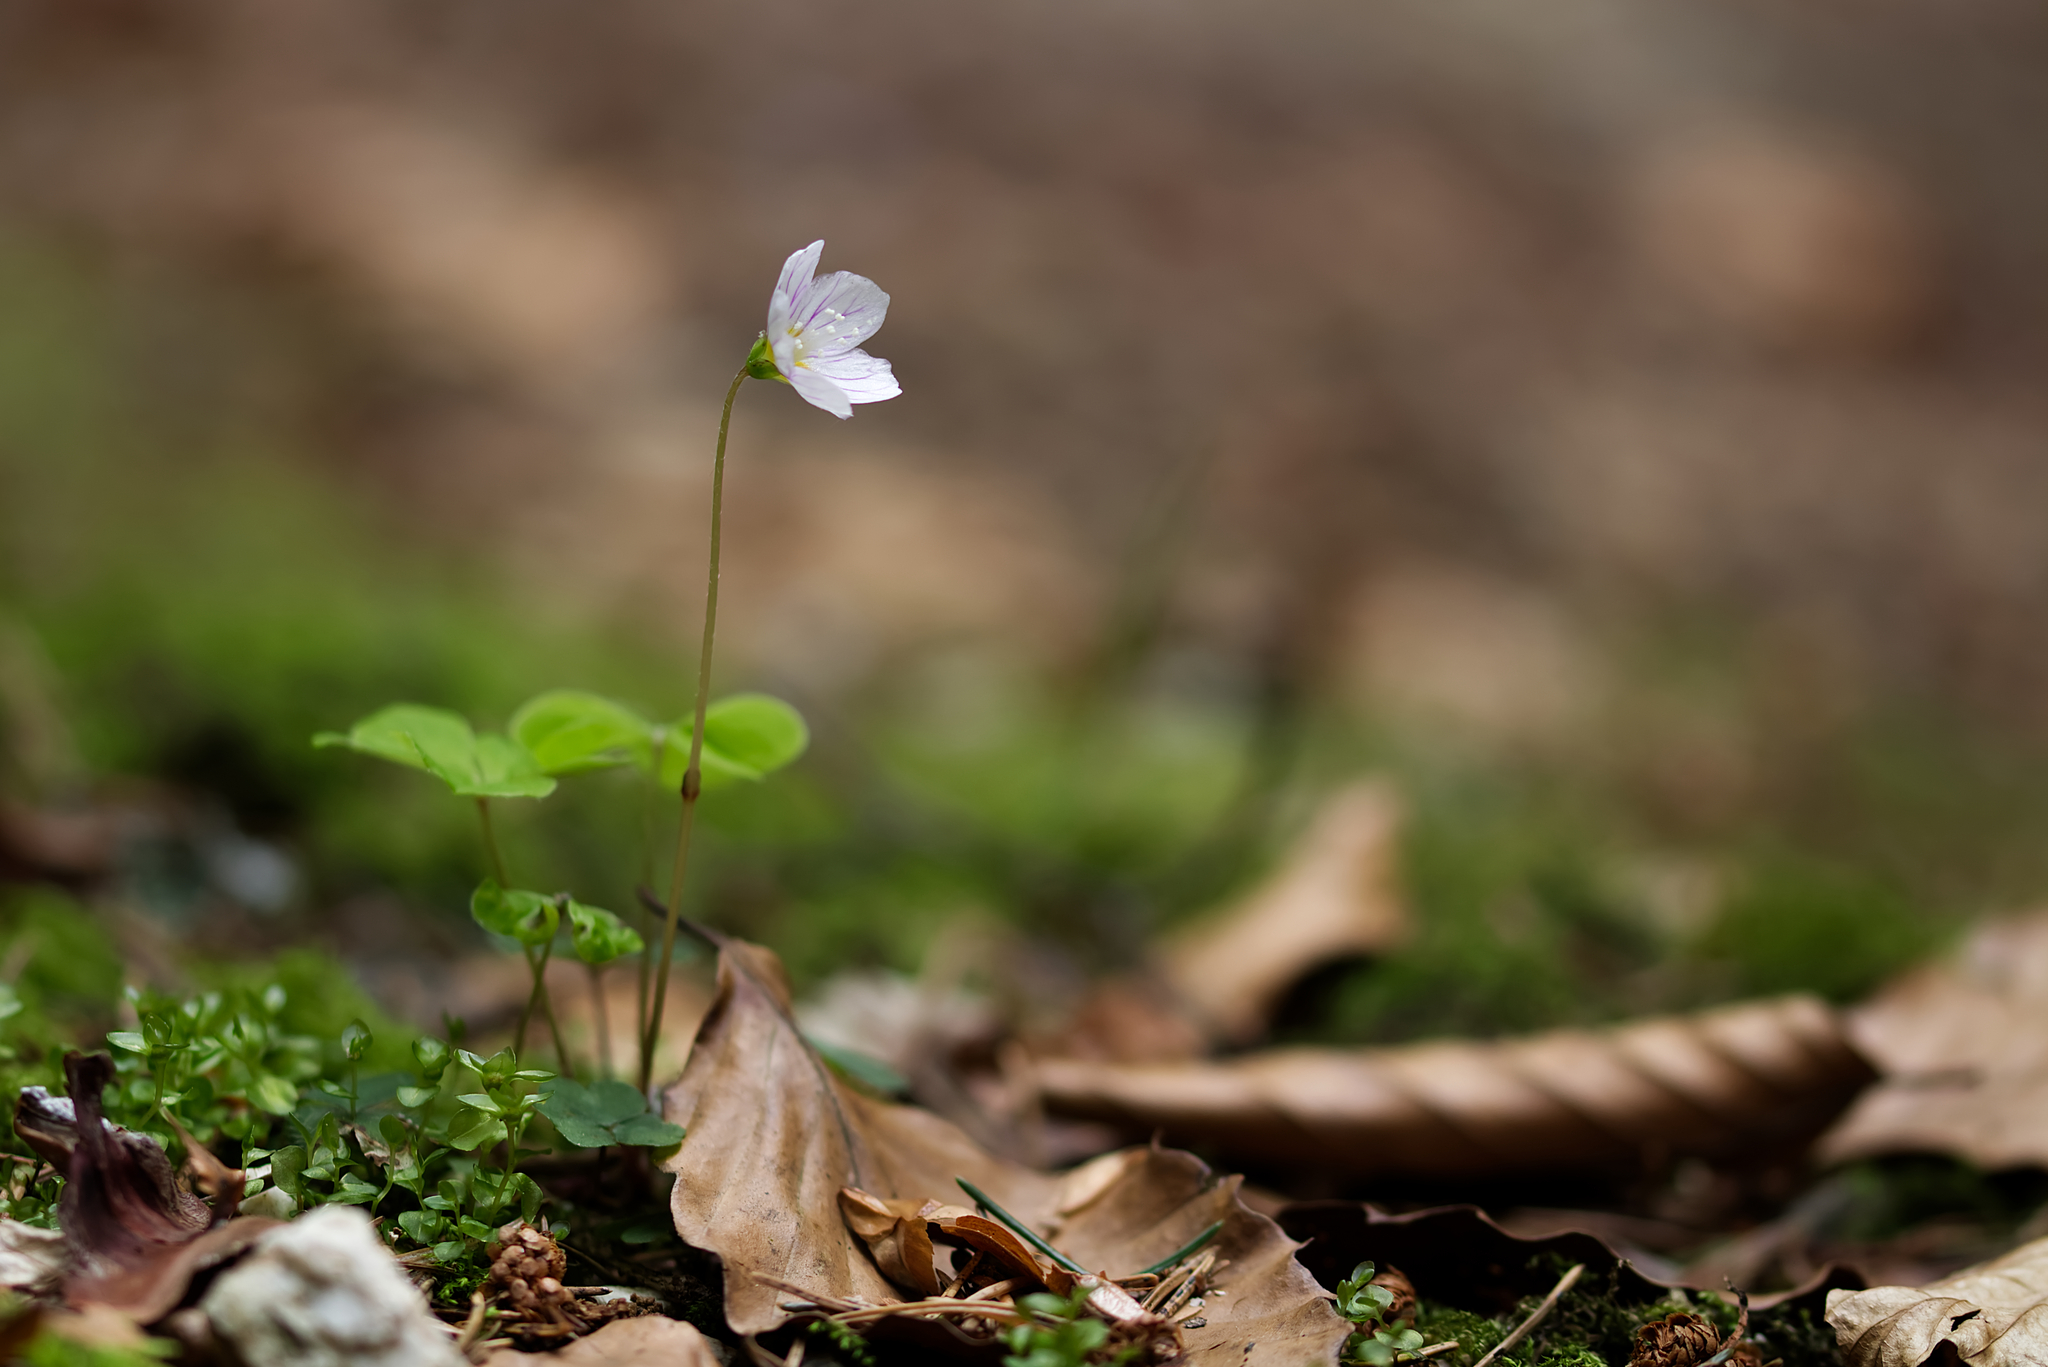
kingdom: Plantae
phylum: Tracheophyta
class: Magnoliopsida
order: Oxalidales
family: Oxalidaceae
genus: Oxalis
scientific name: Oxalis acetosella
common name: Wood-sorrel
